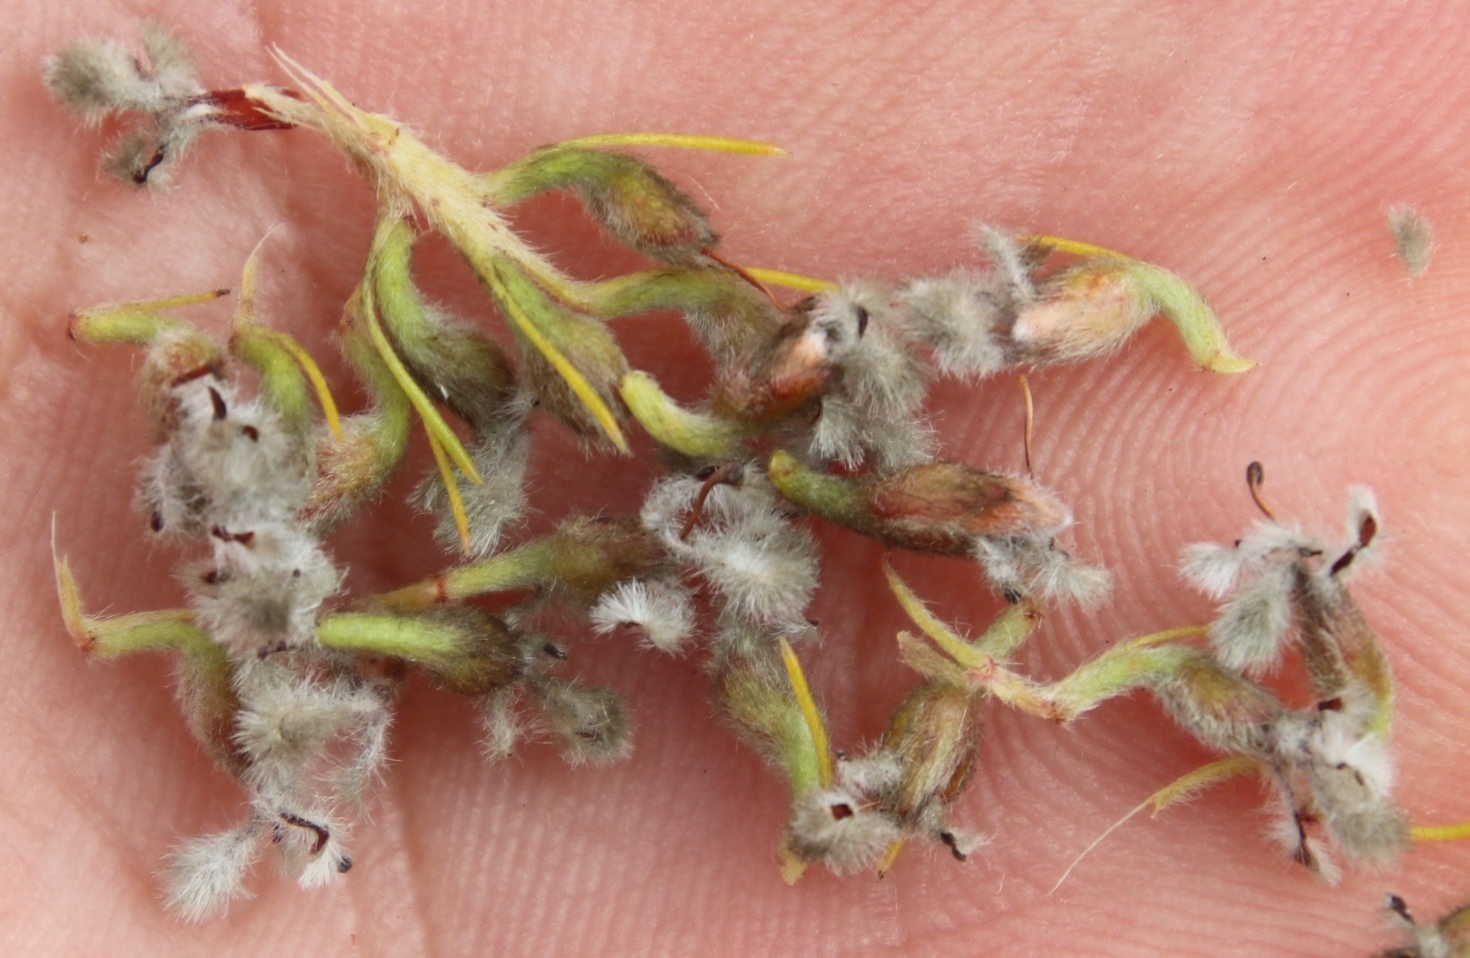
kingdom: Plantae
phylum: Tracheophyta
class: Magnoliopsida
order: Proteales
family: Proteaceae
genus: Spatalla
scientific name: Spatalla curvifolia
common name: White-stalked spoon
